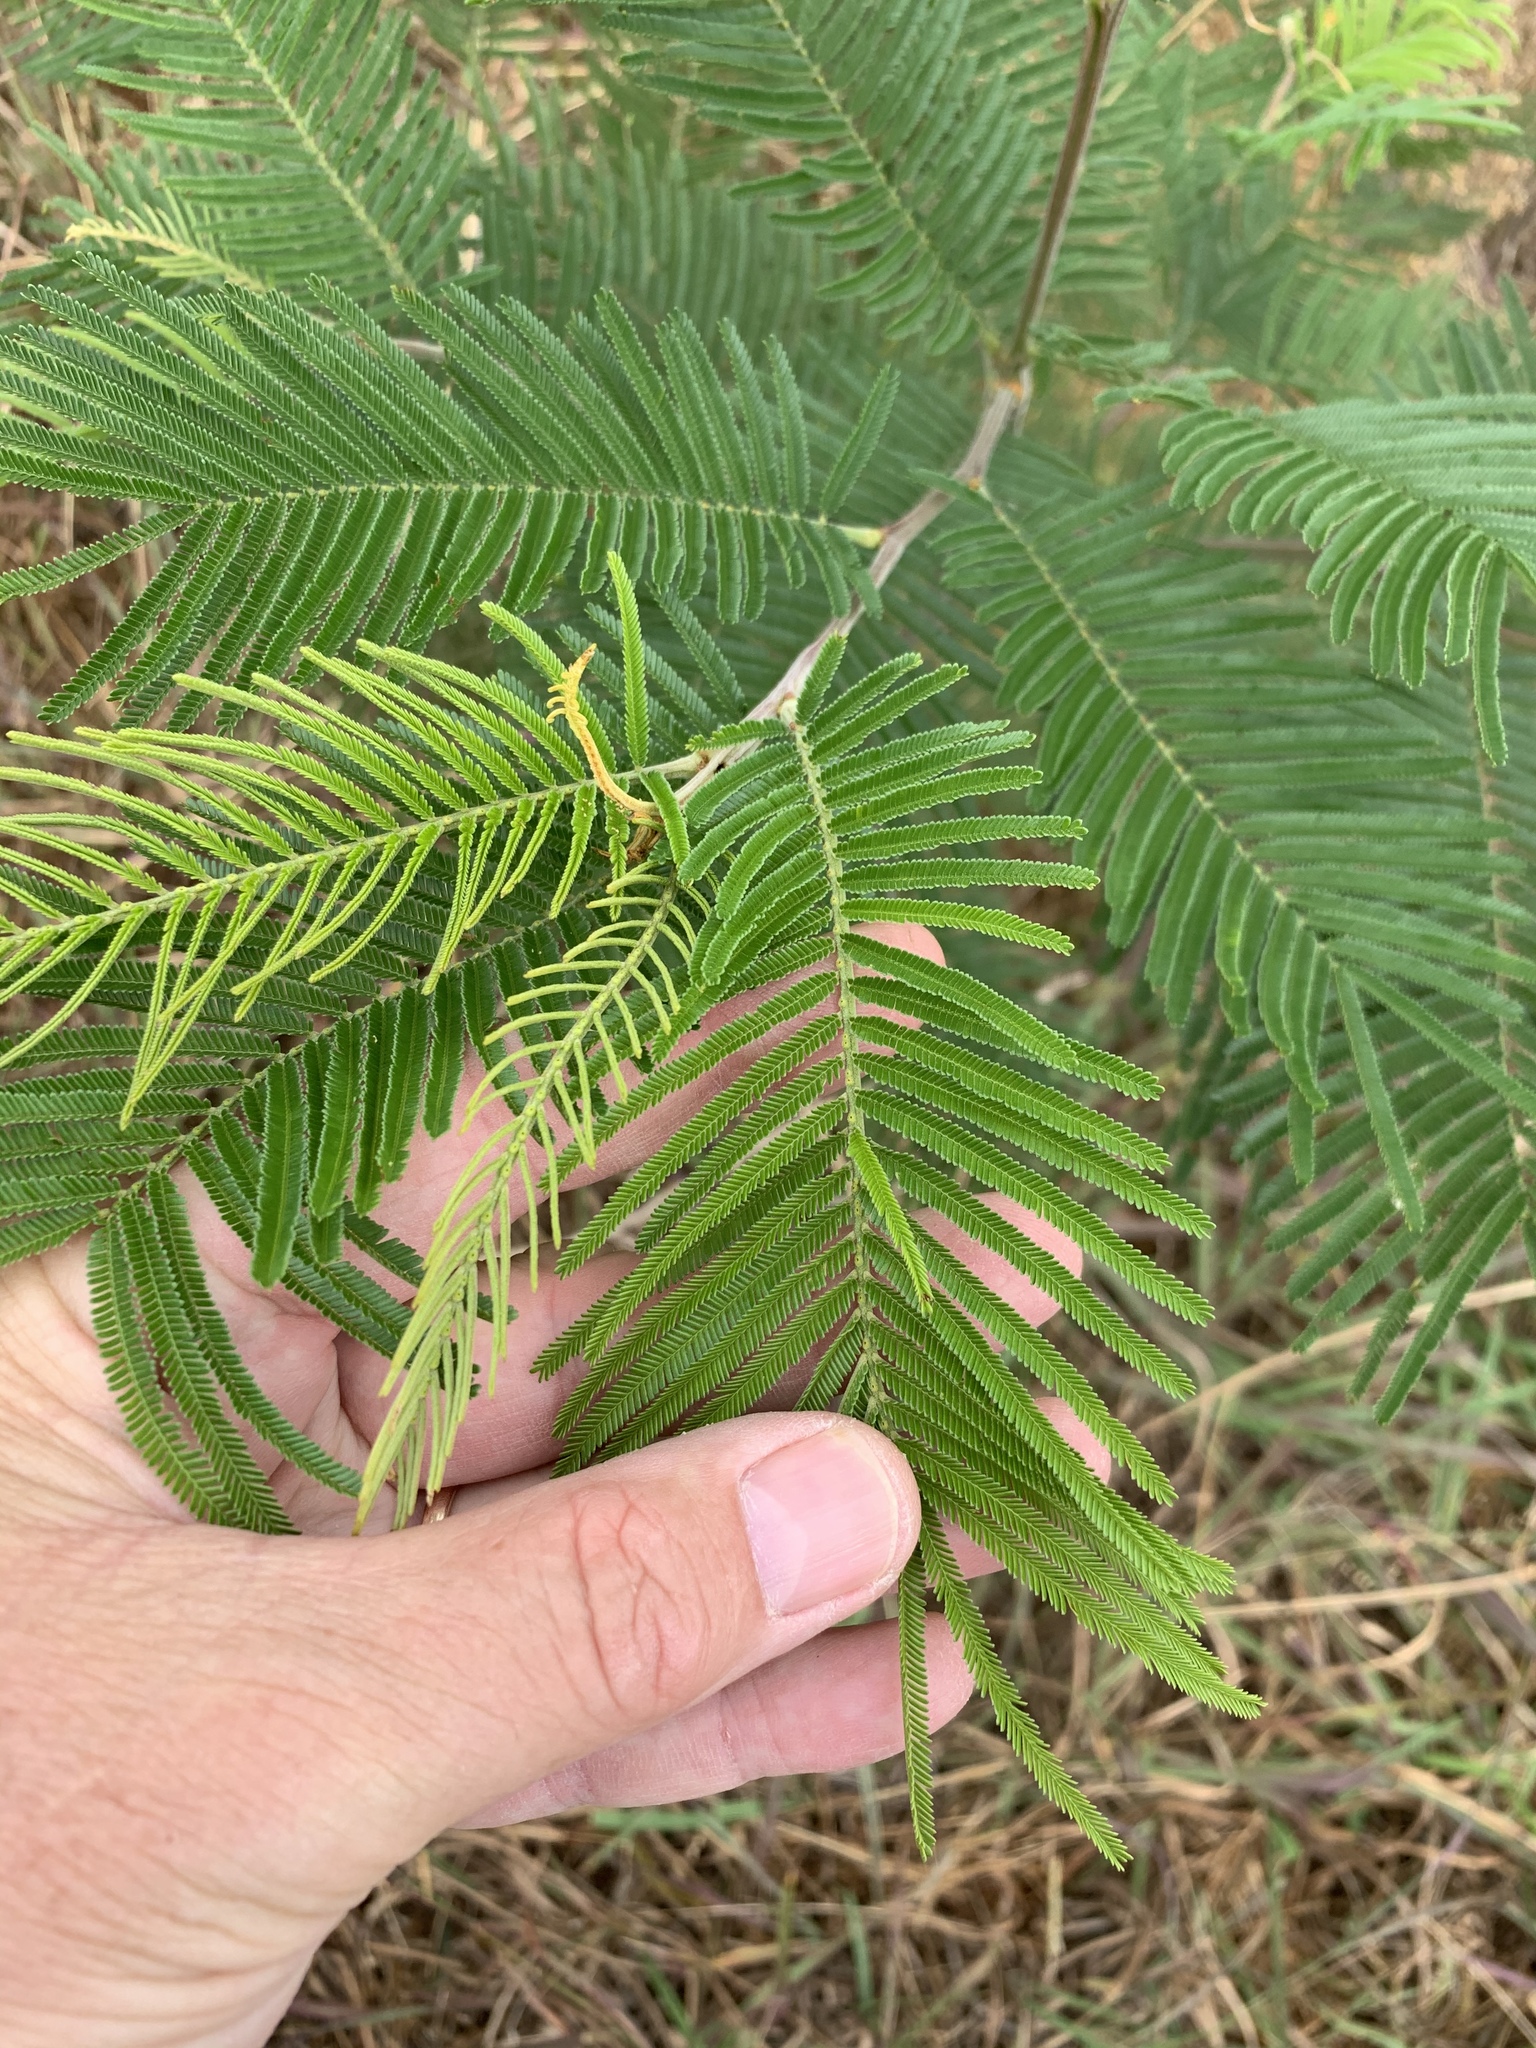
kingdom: Plantae
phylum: Tracheophyta
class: Magnoliopsida
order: Fabales
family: Fabaceae
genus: Acacia
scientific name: Acacia mearnsii
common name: Black wattle
